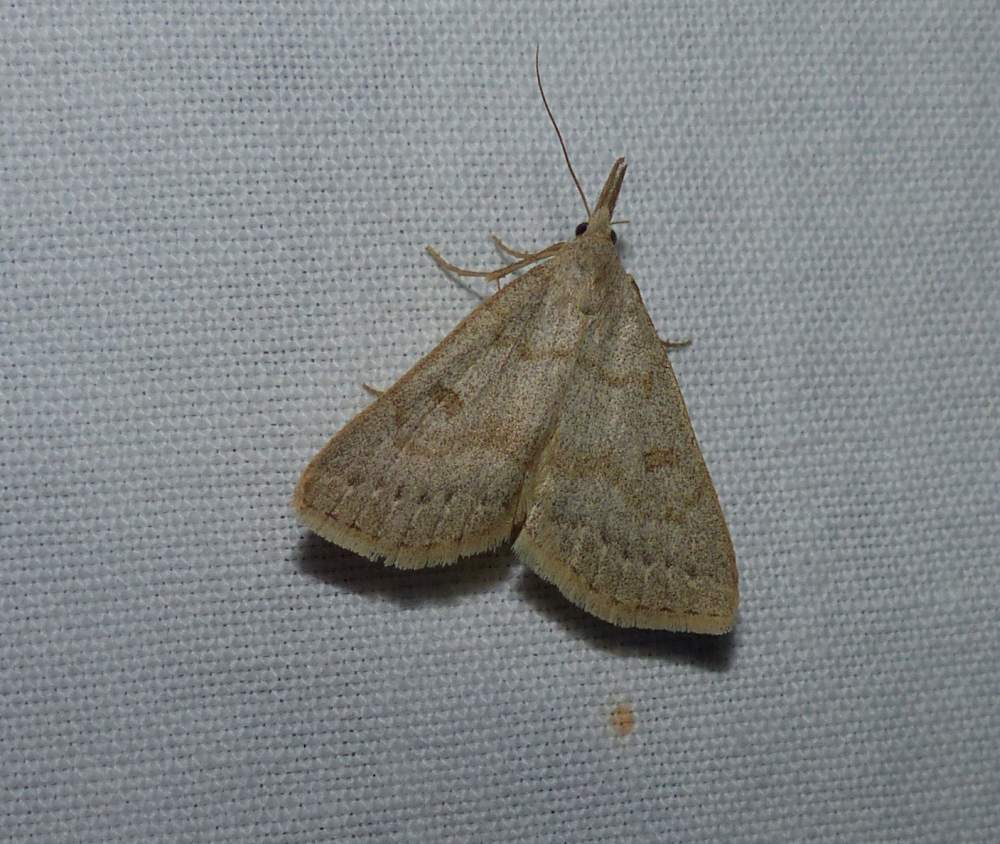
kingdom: Animalia
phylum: Arthropoda
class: Insecta
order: Lepidoptera
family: Erebidae
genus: Macrochilo
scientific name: Macrochilo morbidalis
